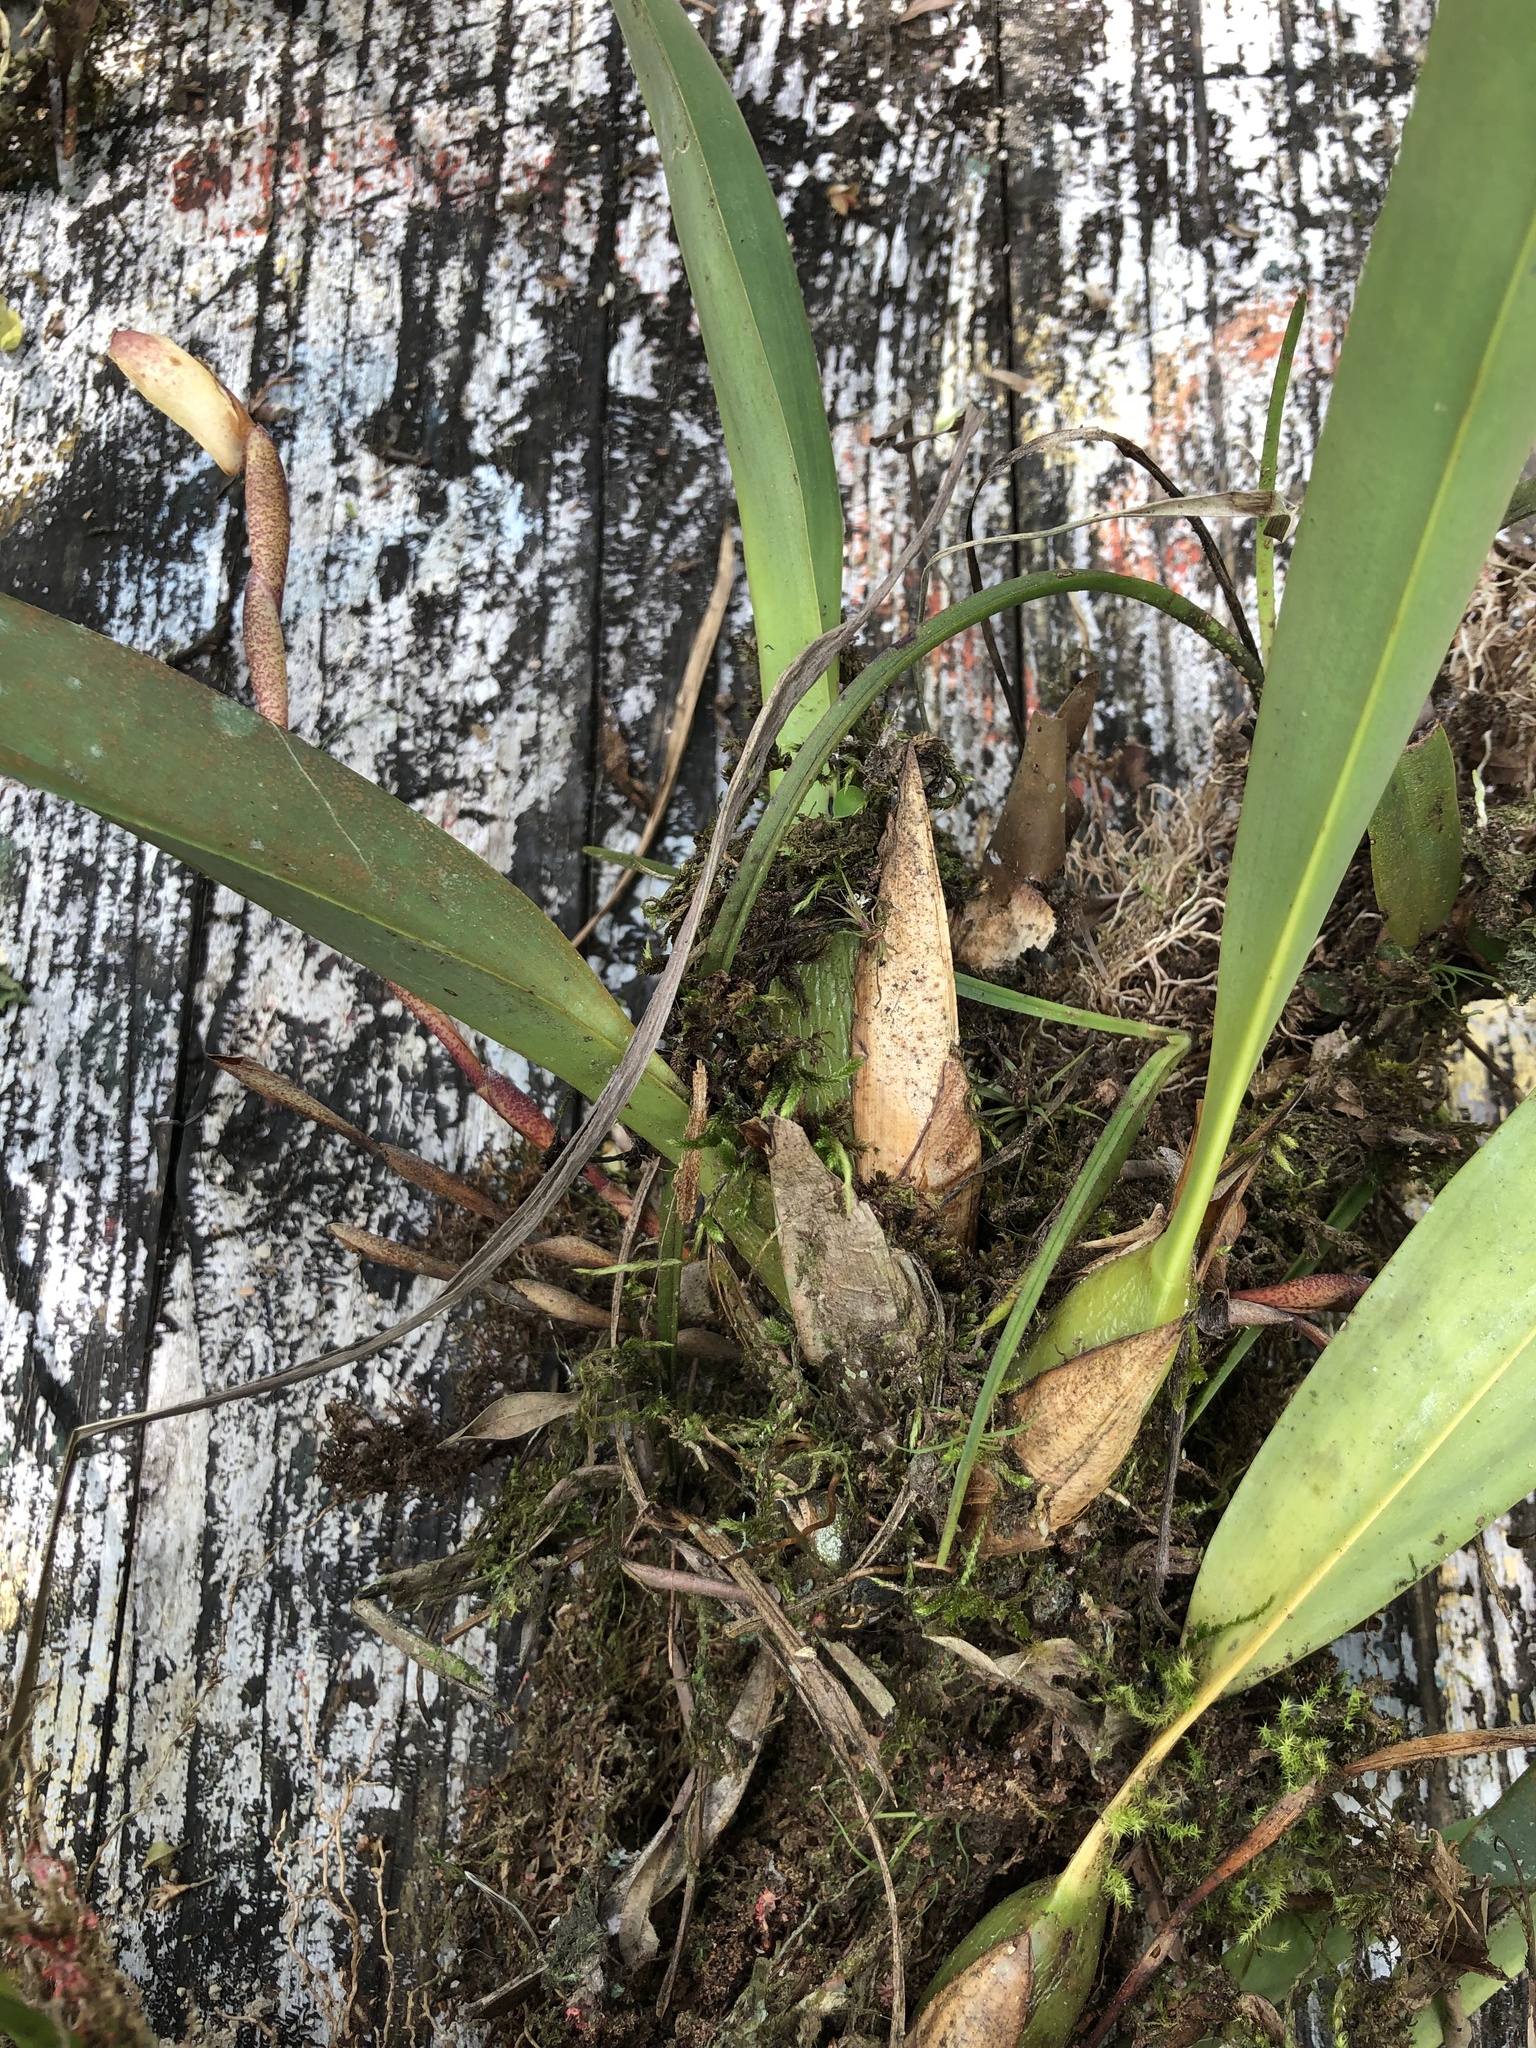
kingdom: Plantae
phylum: Tracheophyta
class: Liliopsida
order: Asparagales
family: Orchidaceae
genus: Maxillaria
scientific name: Maxillaria porrecta
